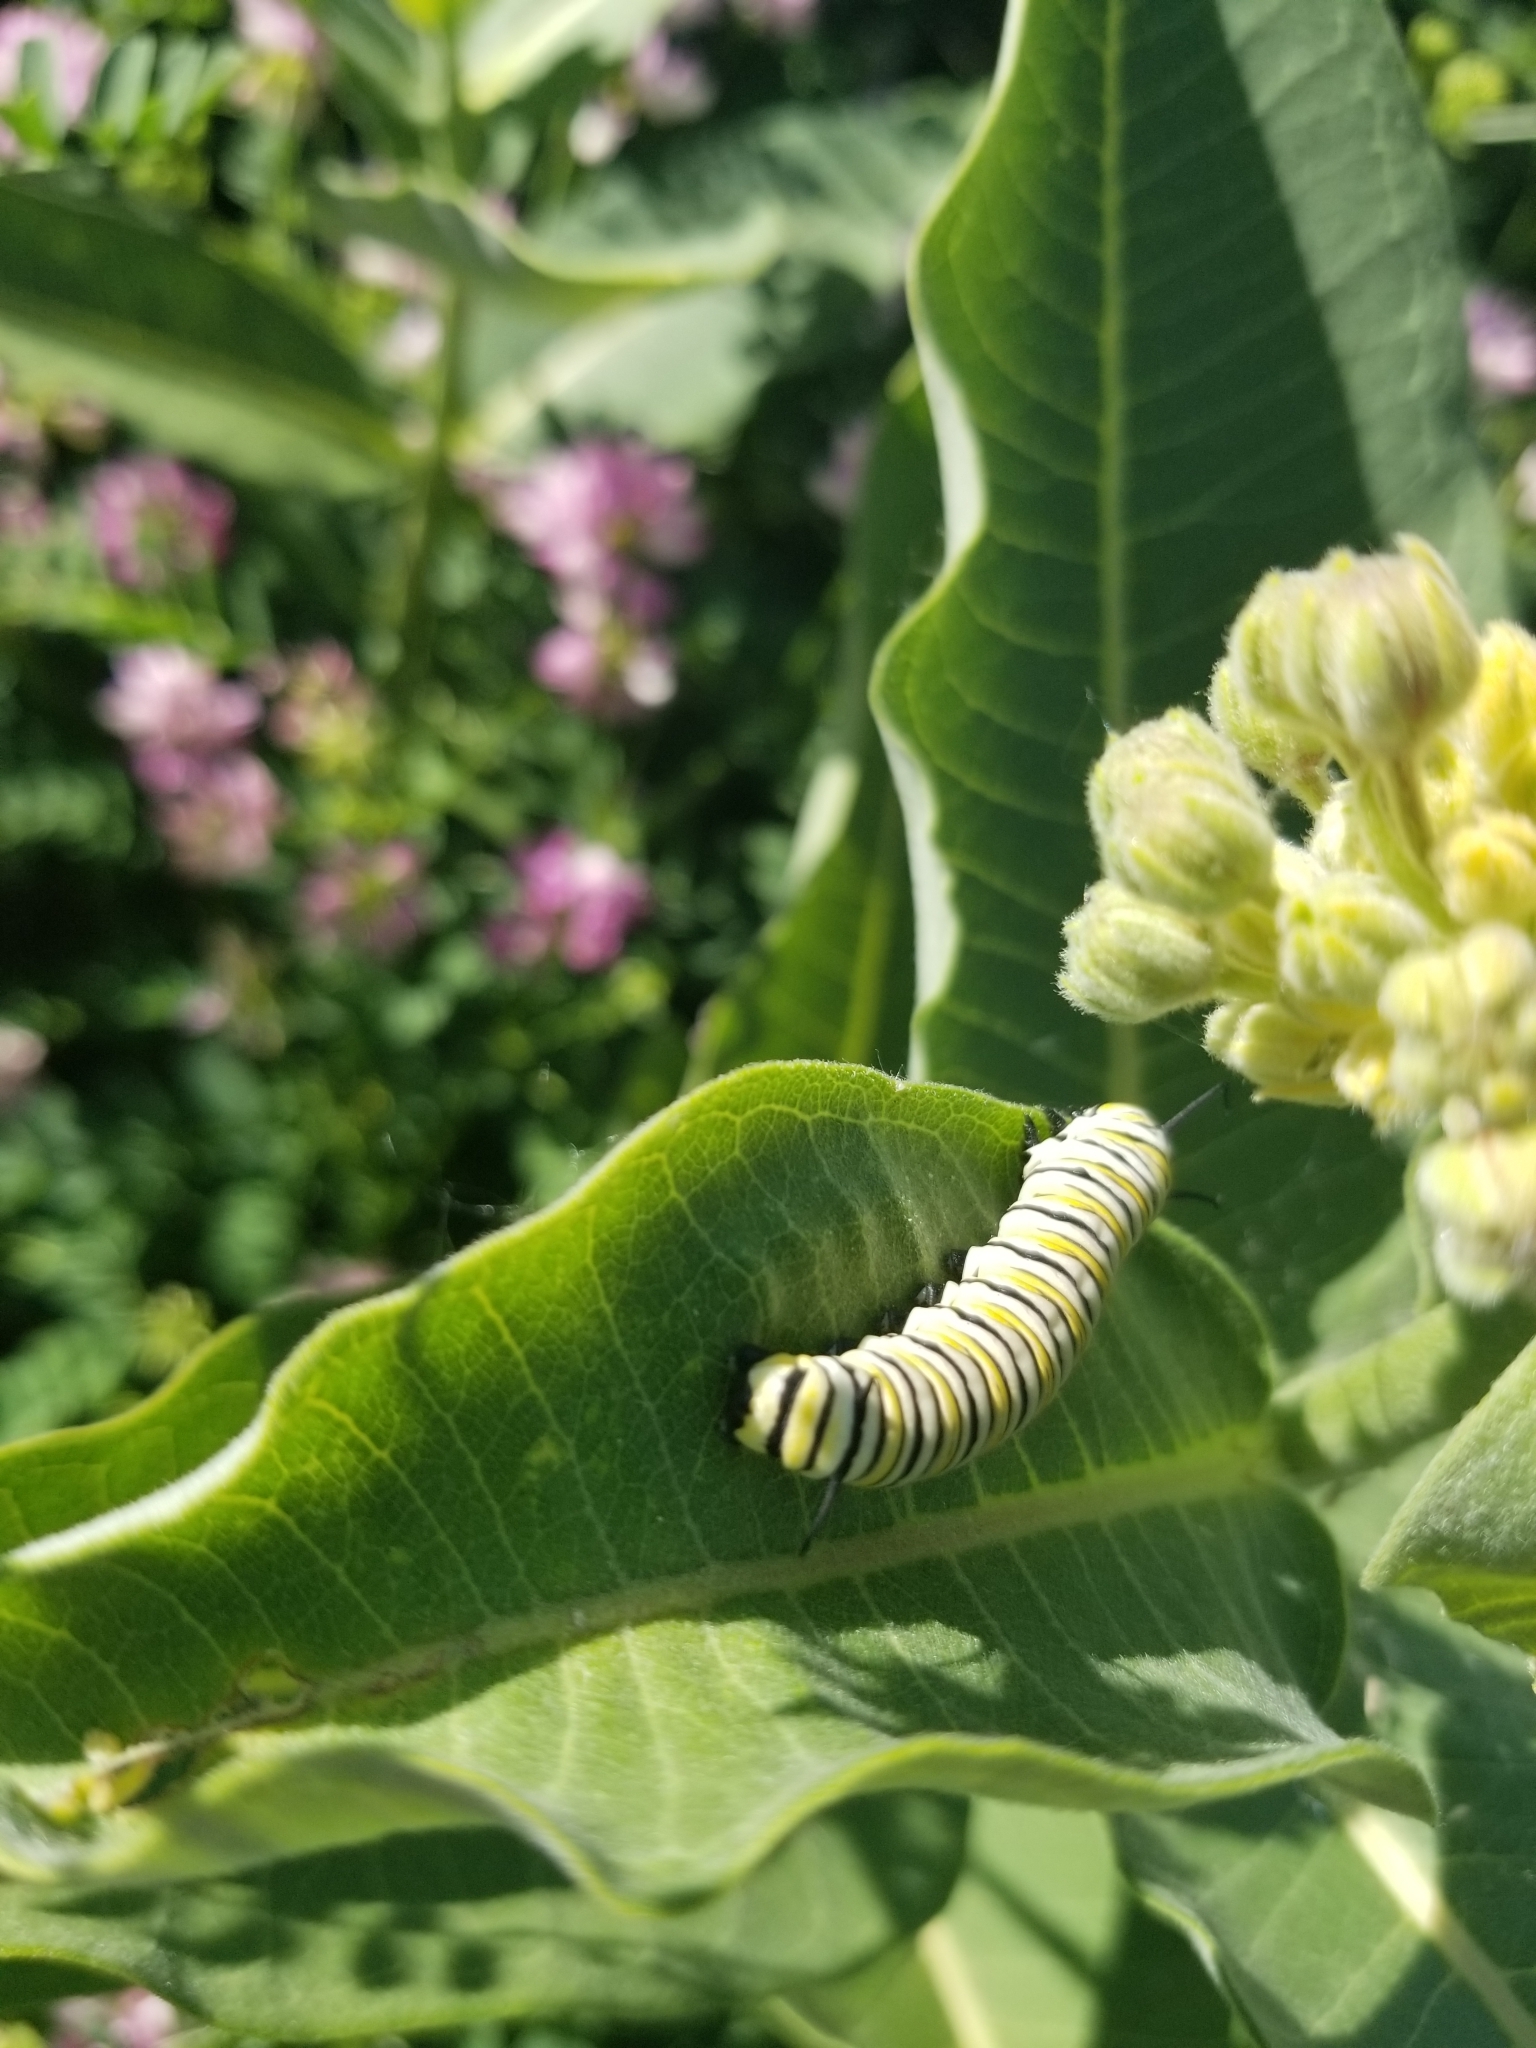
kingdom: Animalia
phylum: Arthropoda
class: Insecta
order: Lepidoptera
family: Nymphalidae
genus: Danaus
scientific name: Danaus plexippus
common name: Monarch
